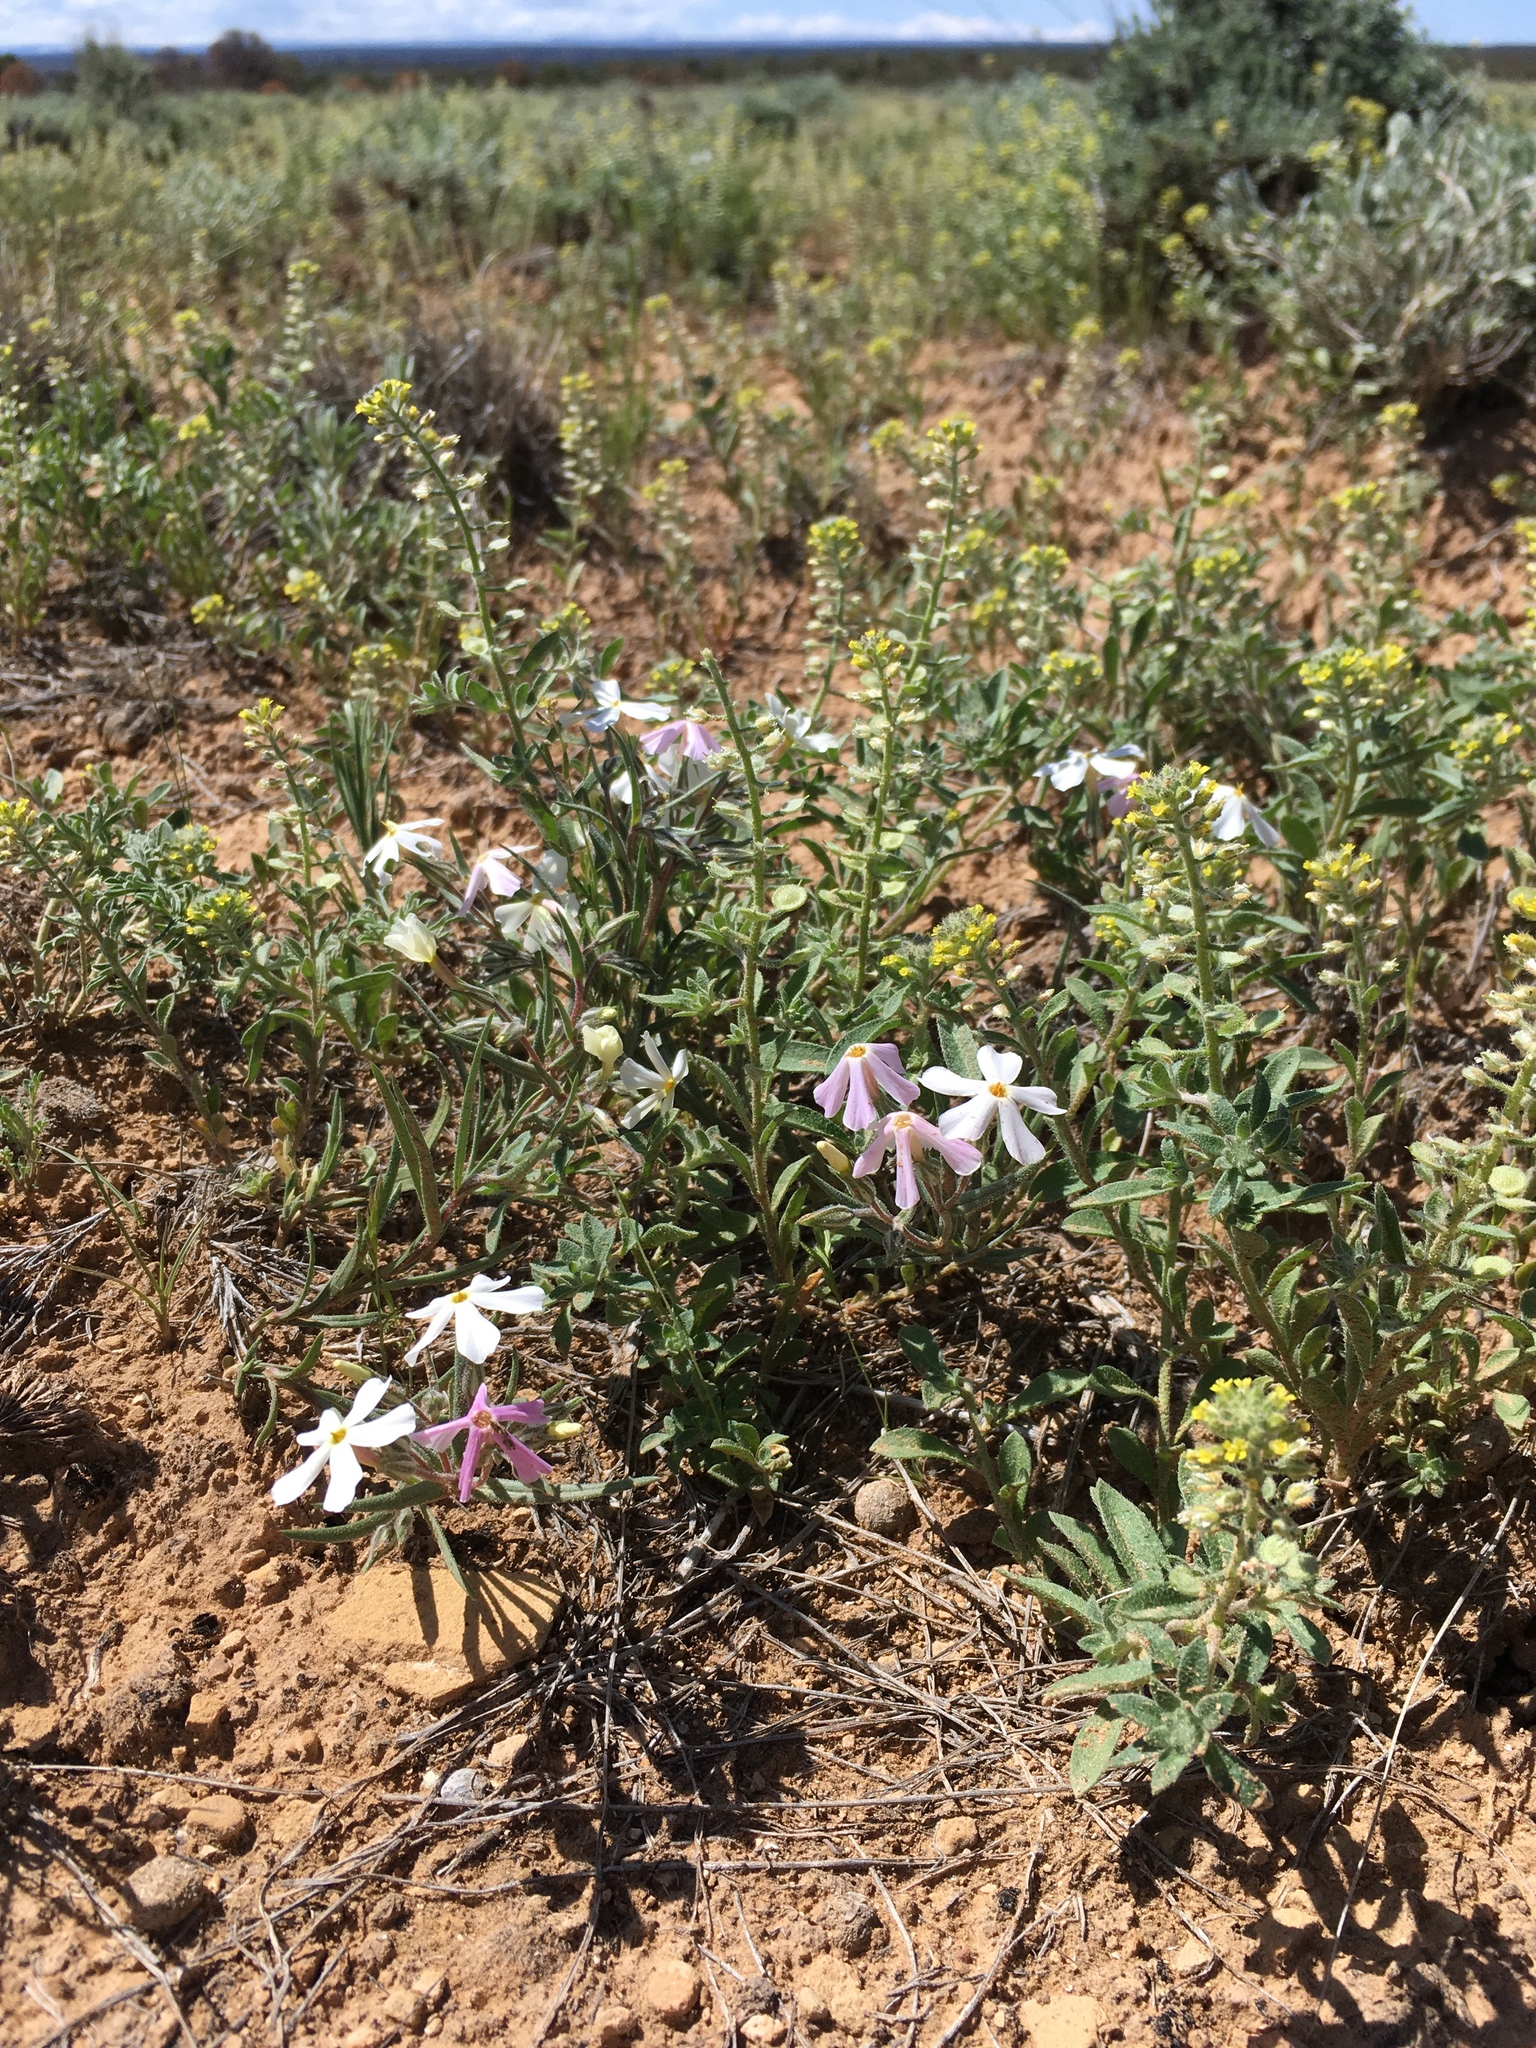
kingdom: Plantae
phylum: Tracheophyta
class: Magnoliopsida
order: Ericales
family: Polemoniaceae
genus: Phlox
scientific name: Phlox longifolia
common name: Longleaf phlox
